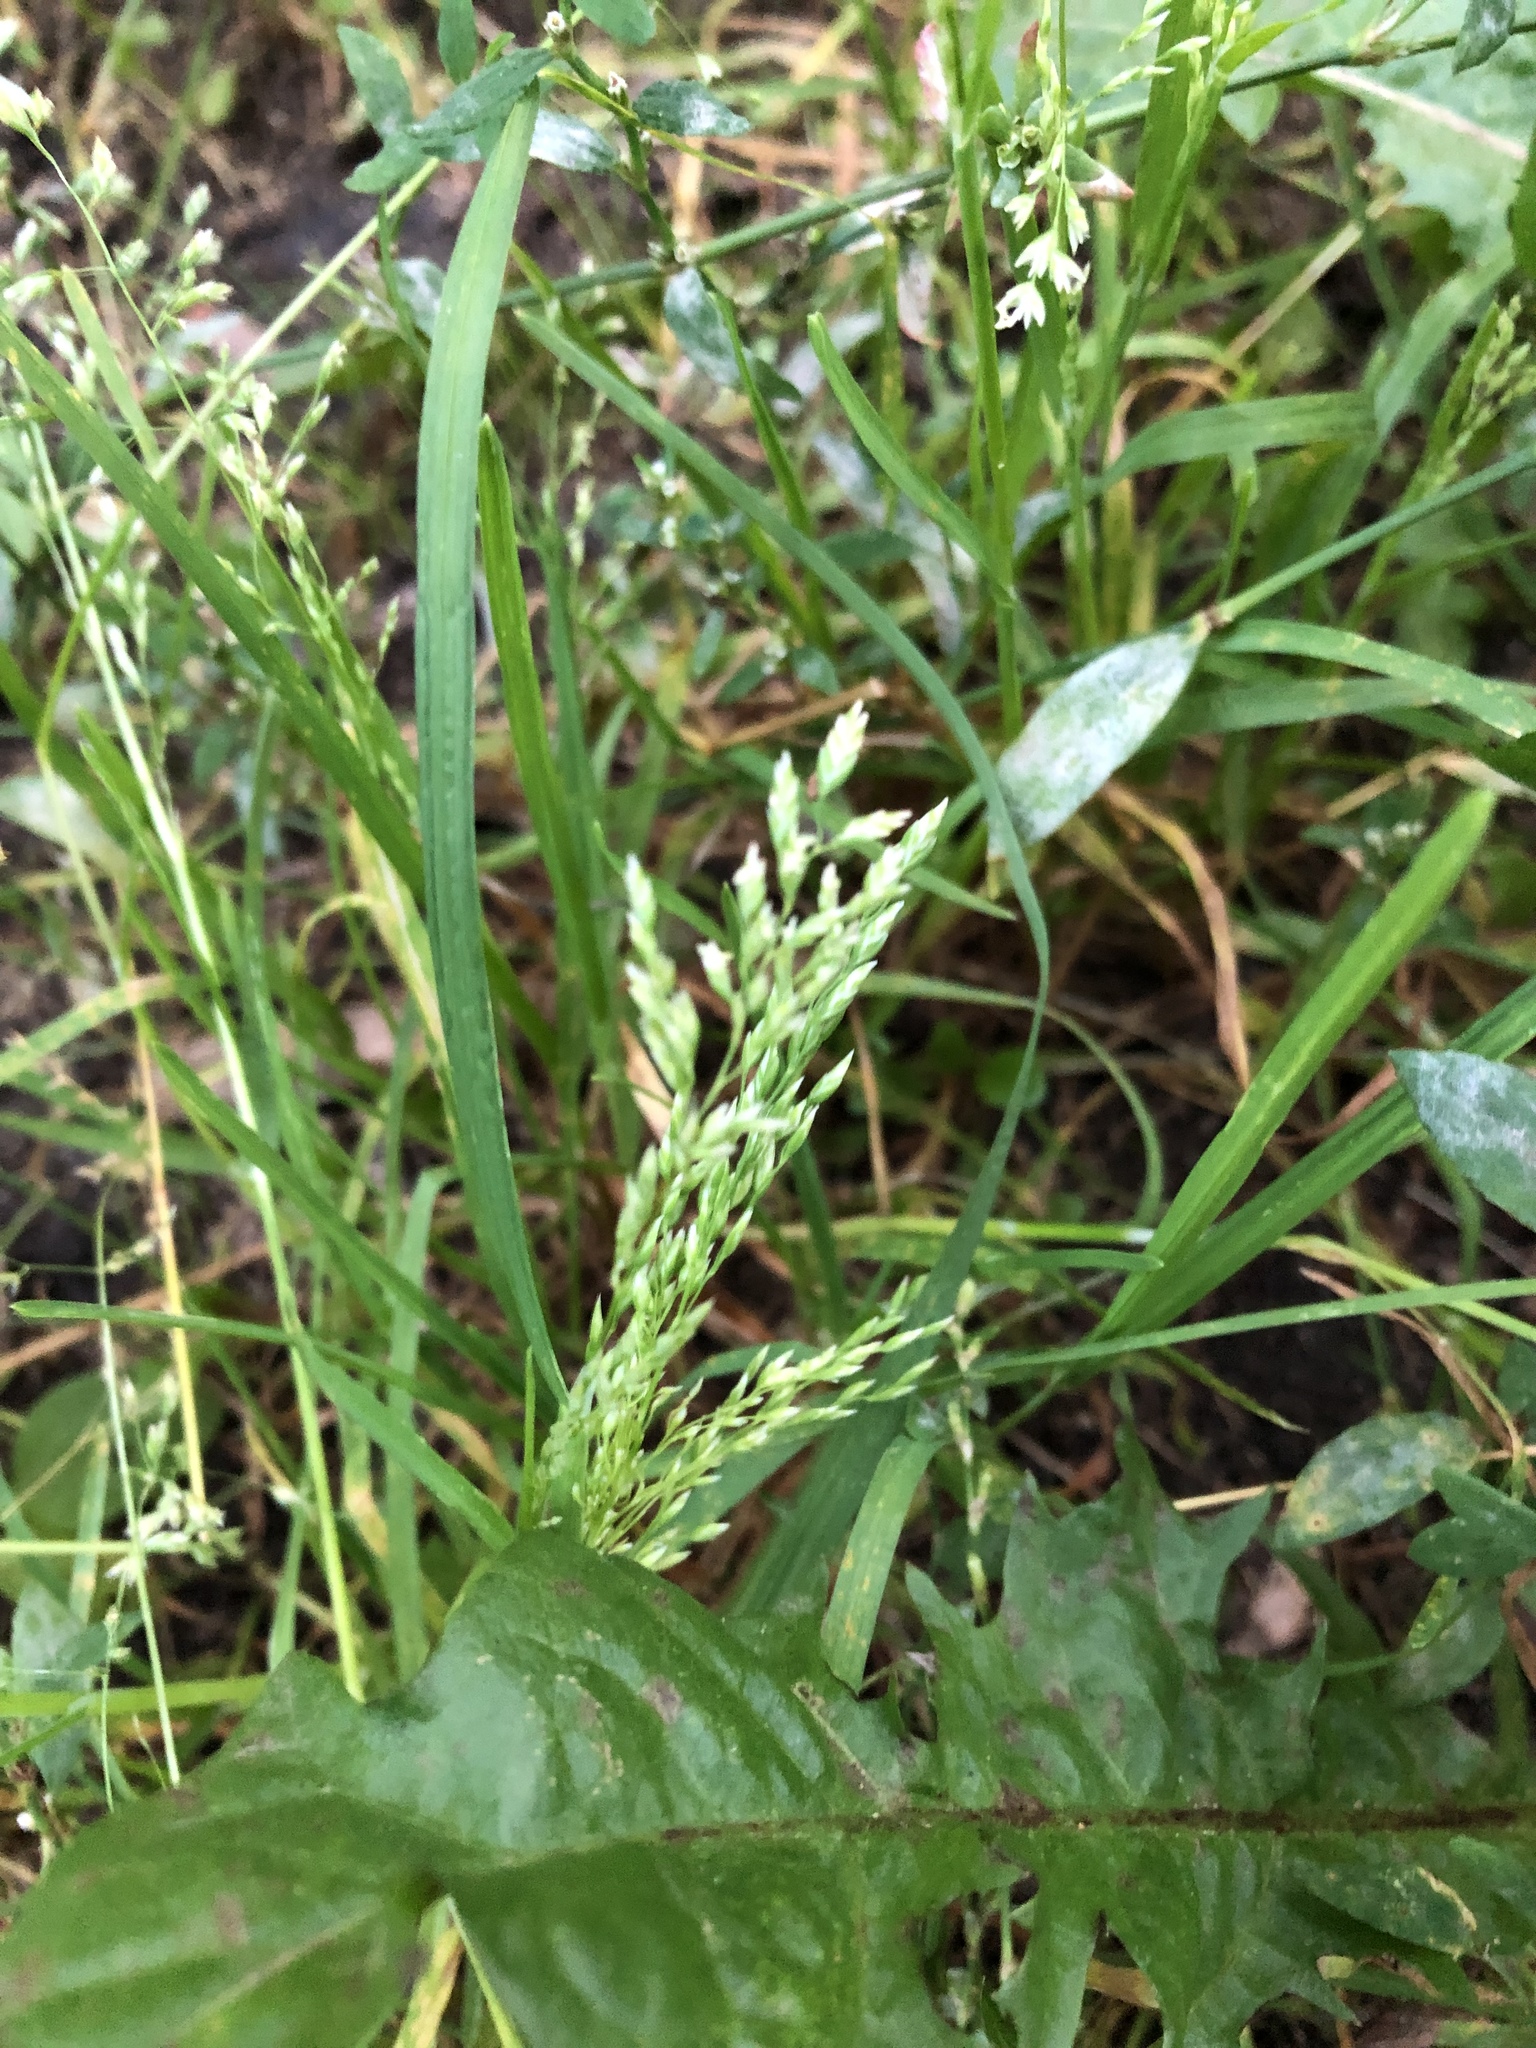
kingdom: Plantae
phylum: Tracheophyta
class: Liliopsida
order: Poales
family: Poaceae
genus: Poa
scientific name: Poa annua
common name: Annual bluegrass
